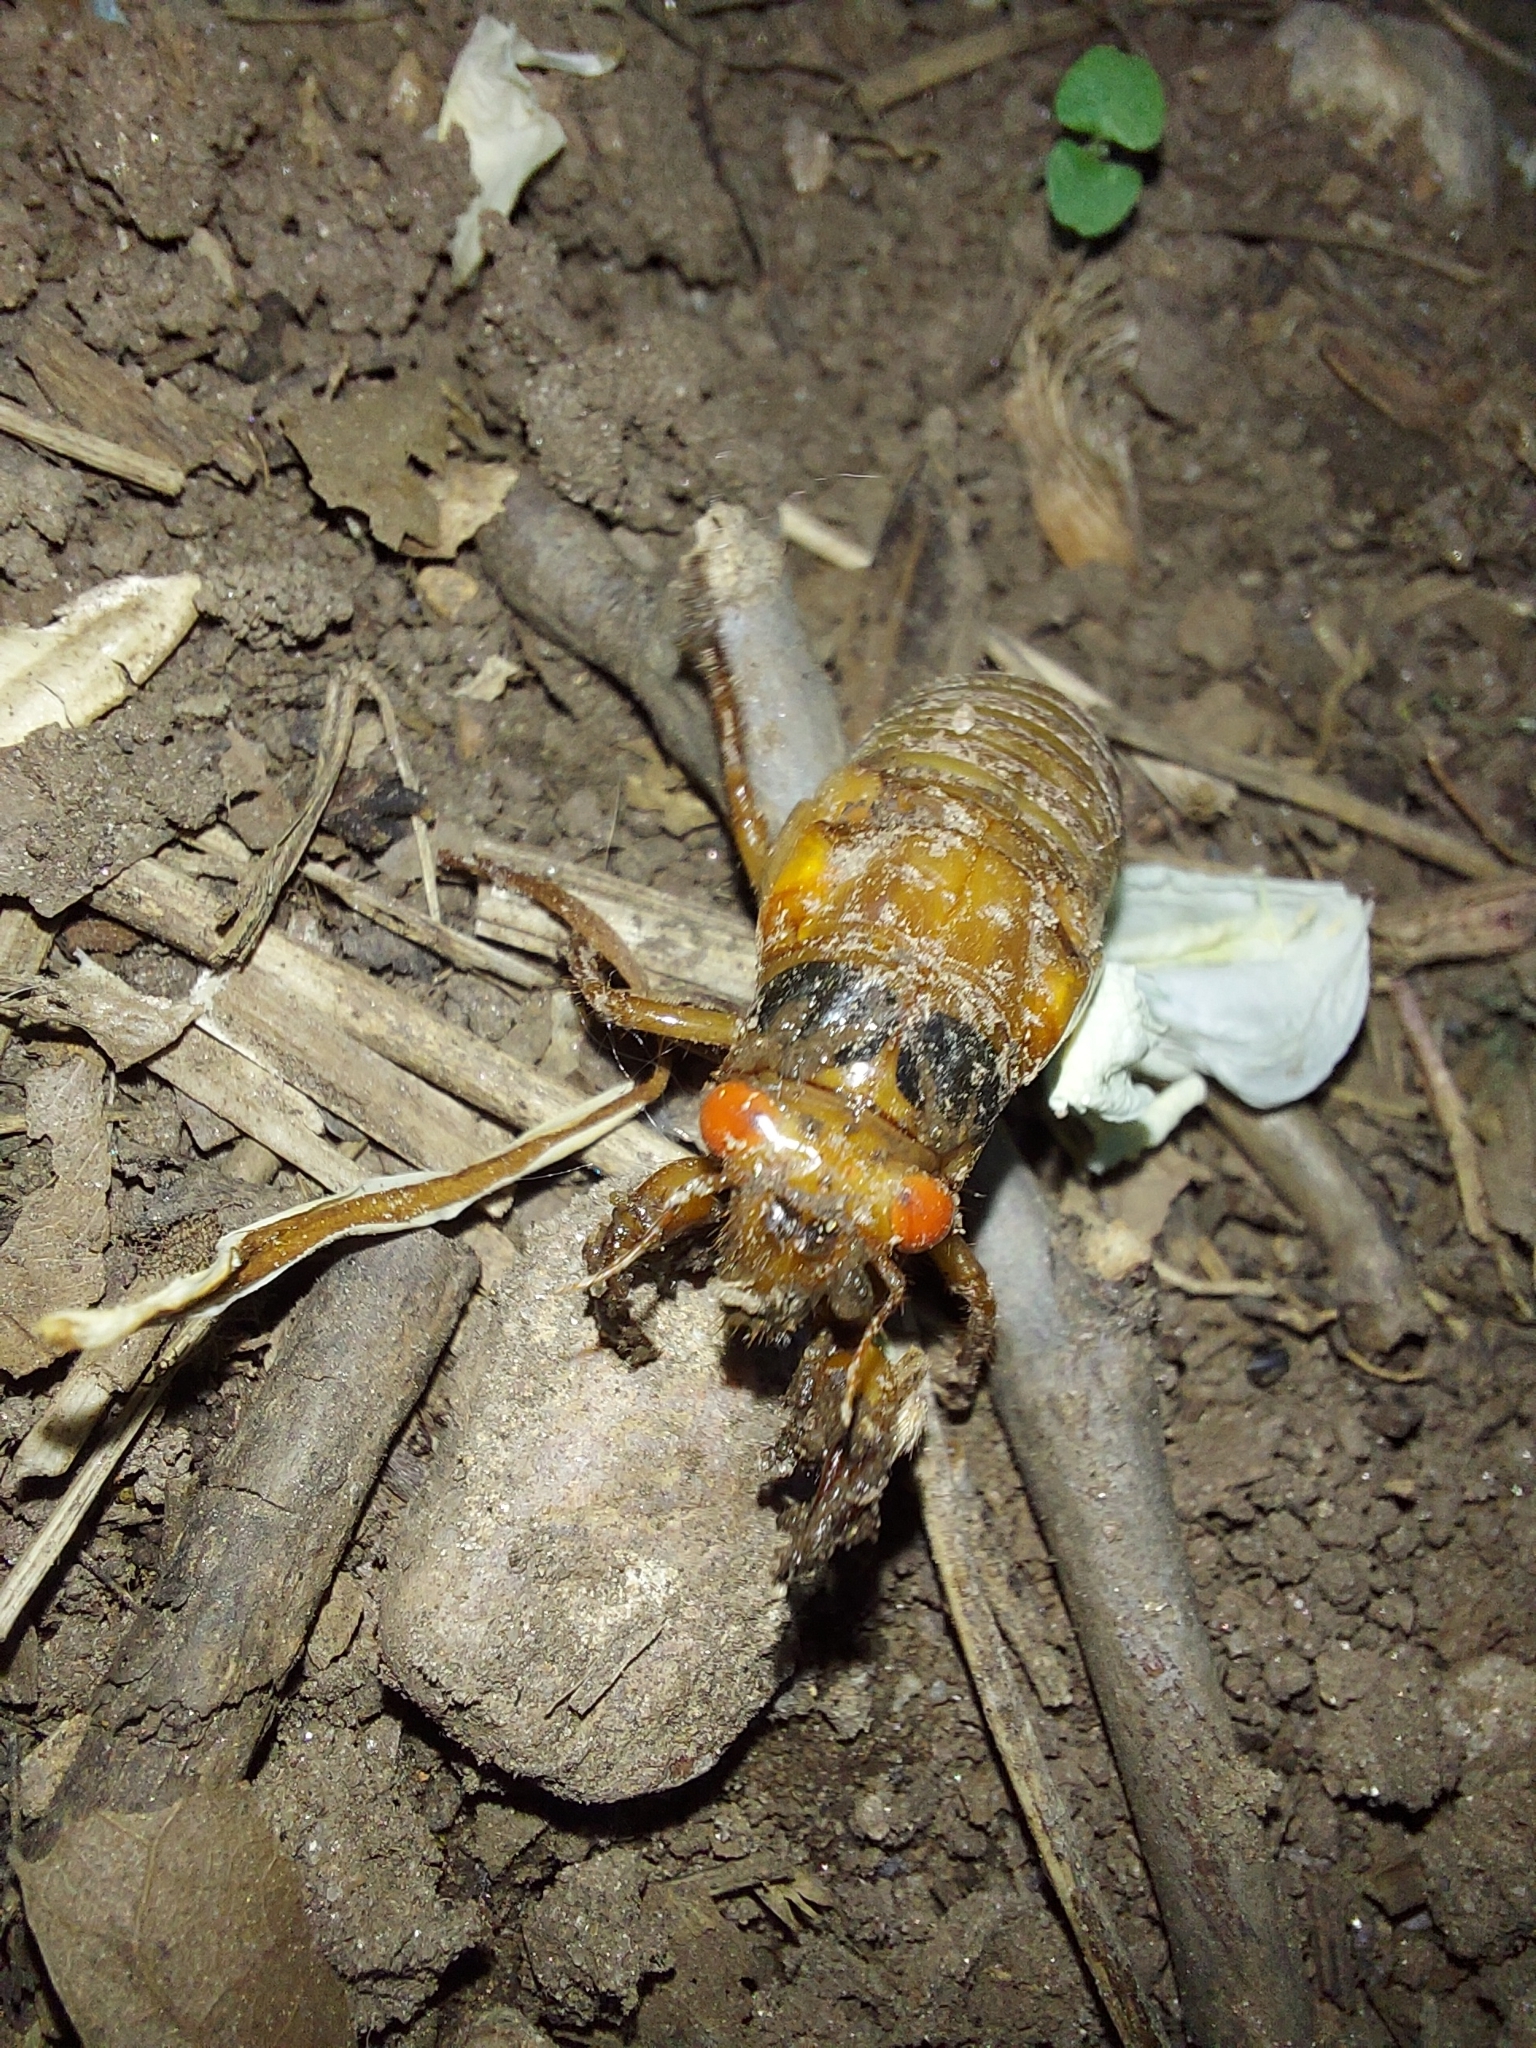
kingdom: Animalia
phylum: Arthropoda
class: Insecta
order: Hemiptera
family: Cicadidae
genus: Magicicada
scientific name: Magicicada
